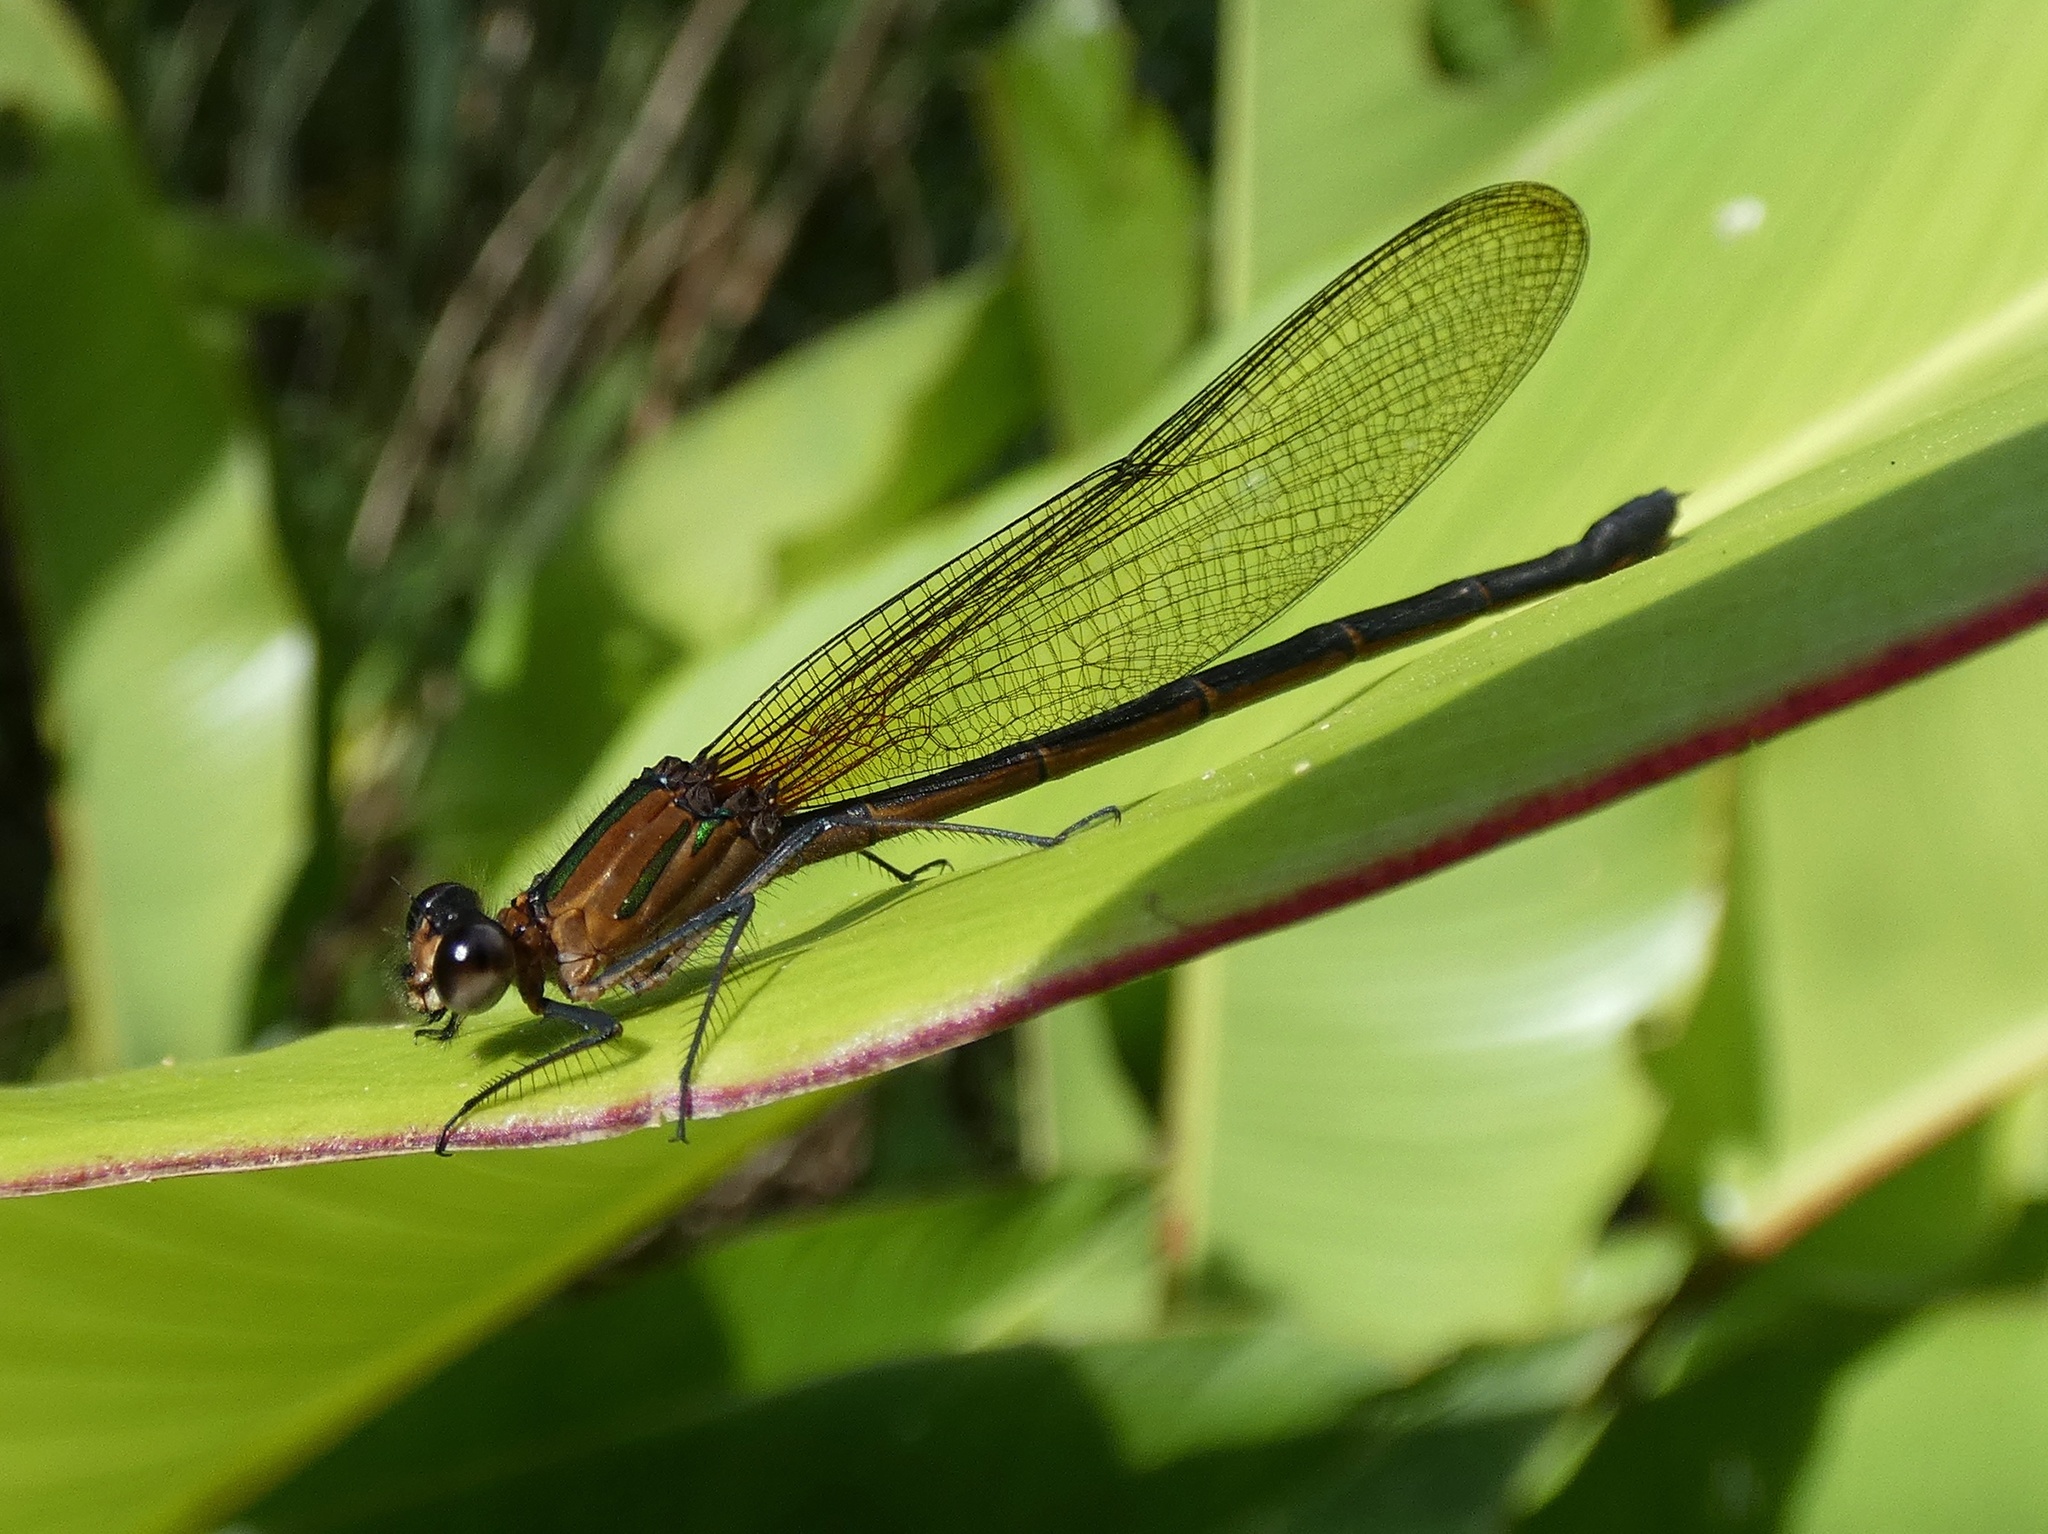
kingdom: Animalia
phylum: Arthropoda
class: Insecta
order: Odonata
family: Calopterygidae
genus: Hetaerina
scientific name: Hetaerina cruentata
